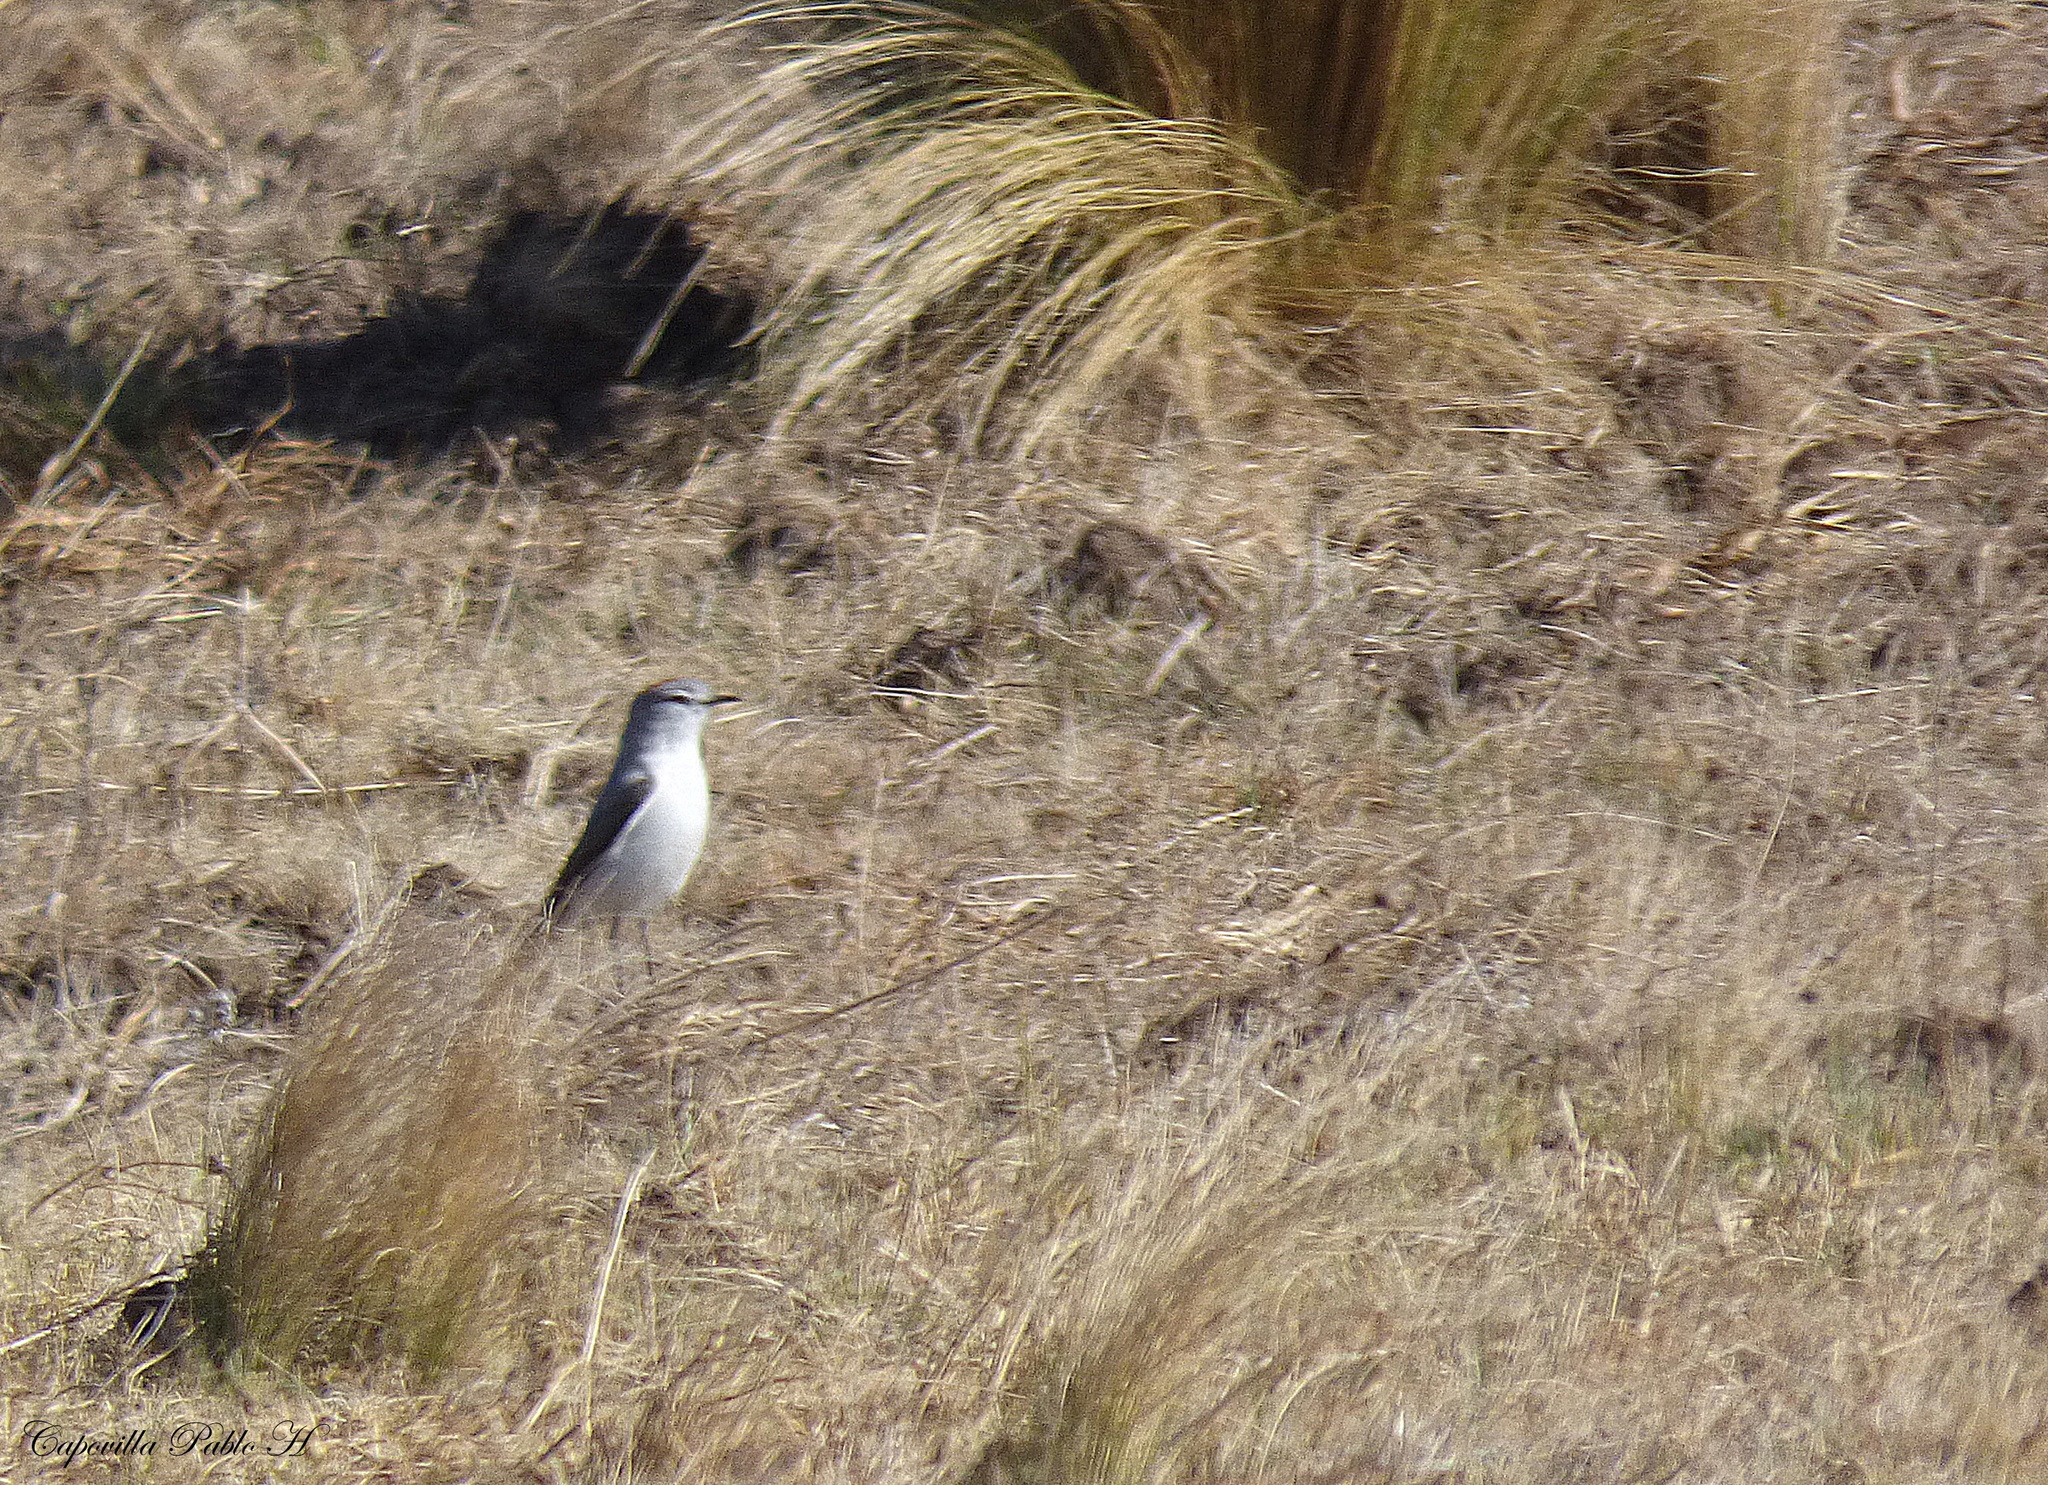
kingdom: Animalia
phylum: Chordata
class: Aves
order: Passeriformes
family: Tyrannidae
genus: Muscisaxicola
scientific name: Muscisaxicola rufivertex
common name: Rufous-naped ground tyrant
